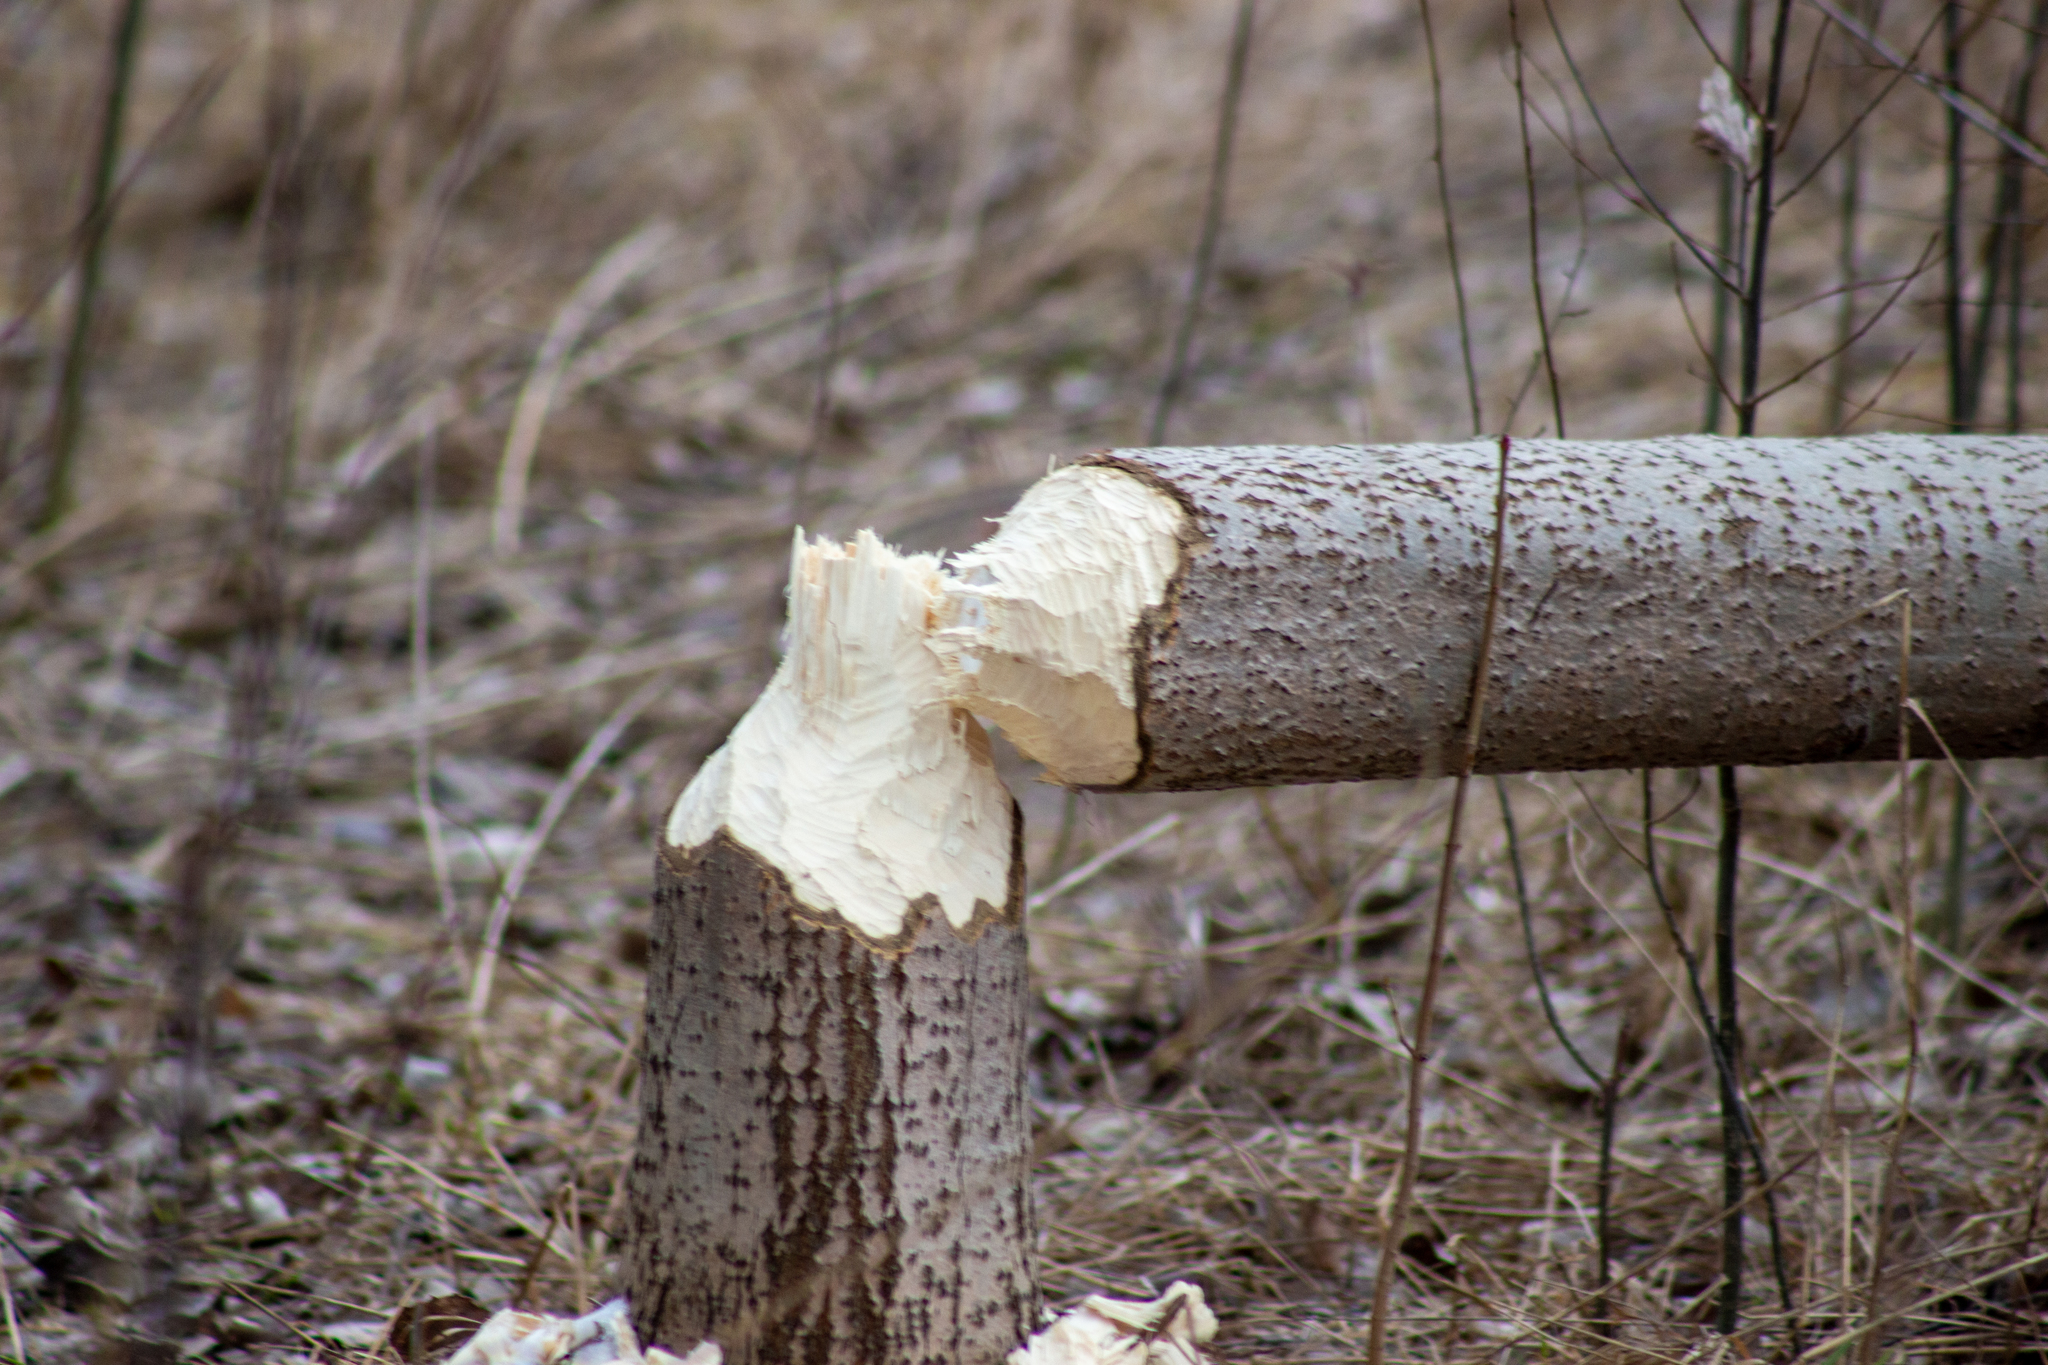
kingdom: Animalia
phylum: Chordata
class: Mammalia
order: Rodentia
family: Castoridae
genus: Castor
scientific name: Castor fiber
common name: Eurasian beaver
